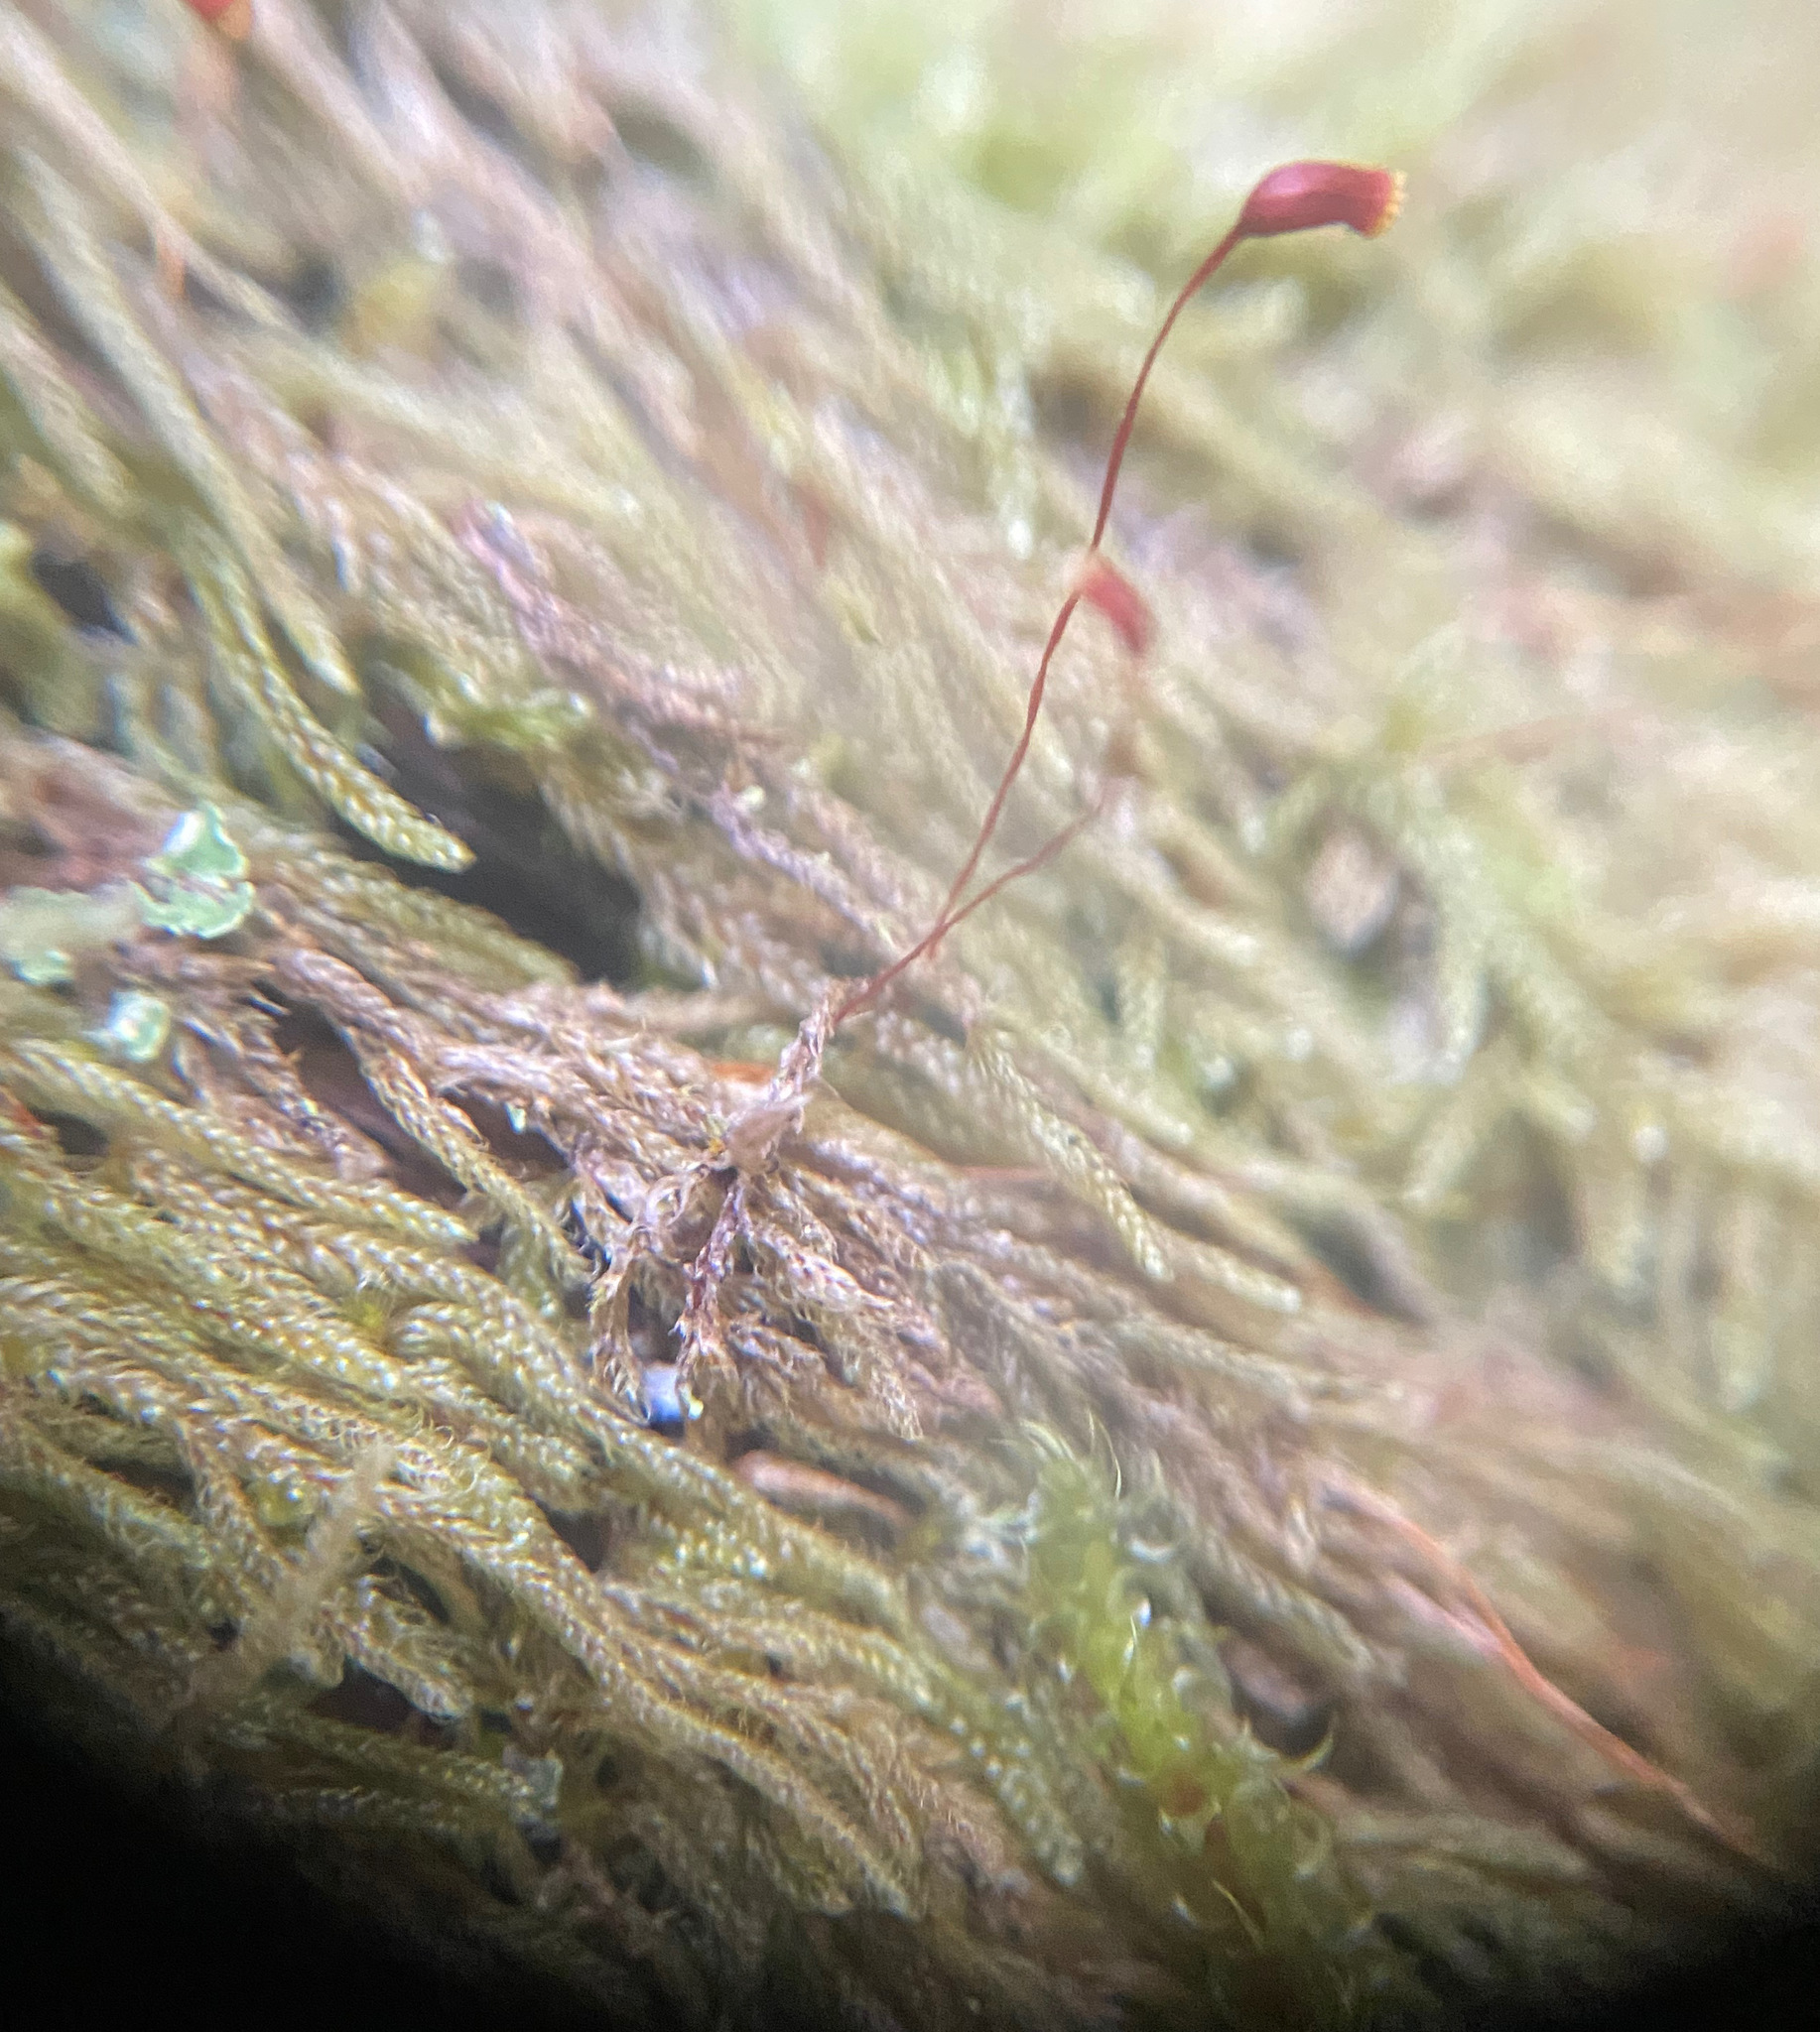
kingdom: Plantae
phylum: Bryophyta
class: Bryopsida
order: Hypnales
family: Pylaisiadelphaceae
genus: Trochophyllohypnum
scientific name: Trochophyllohypnum circinale
